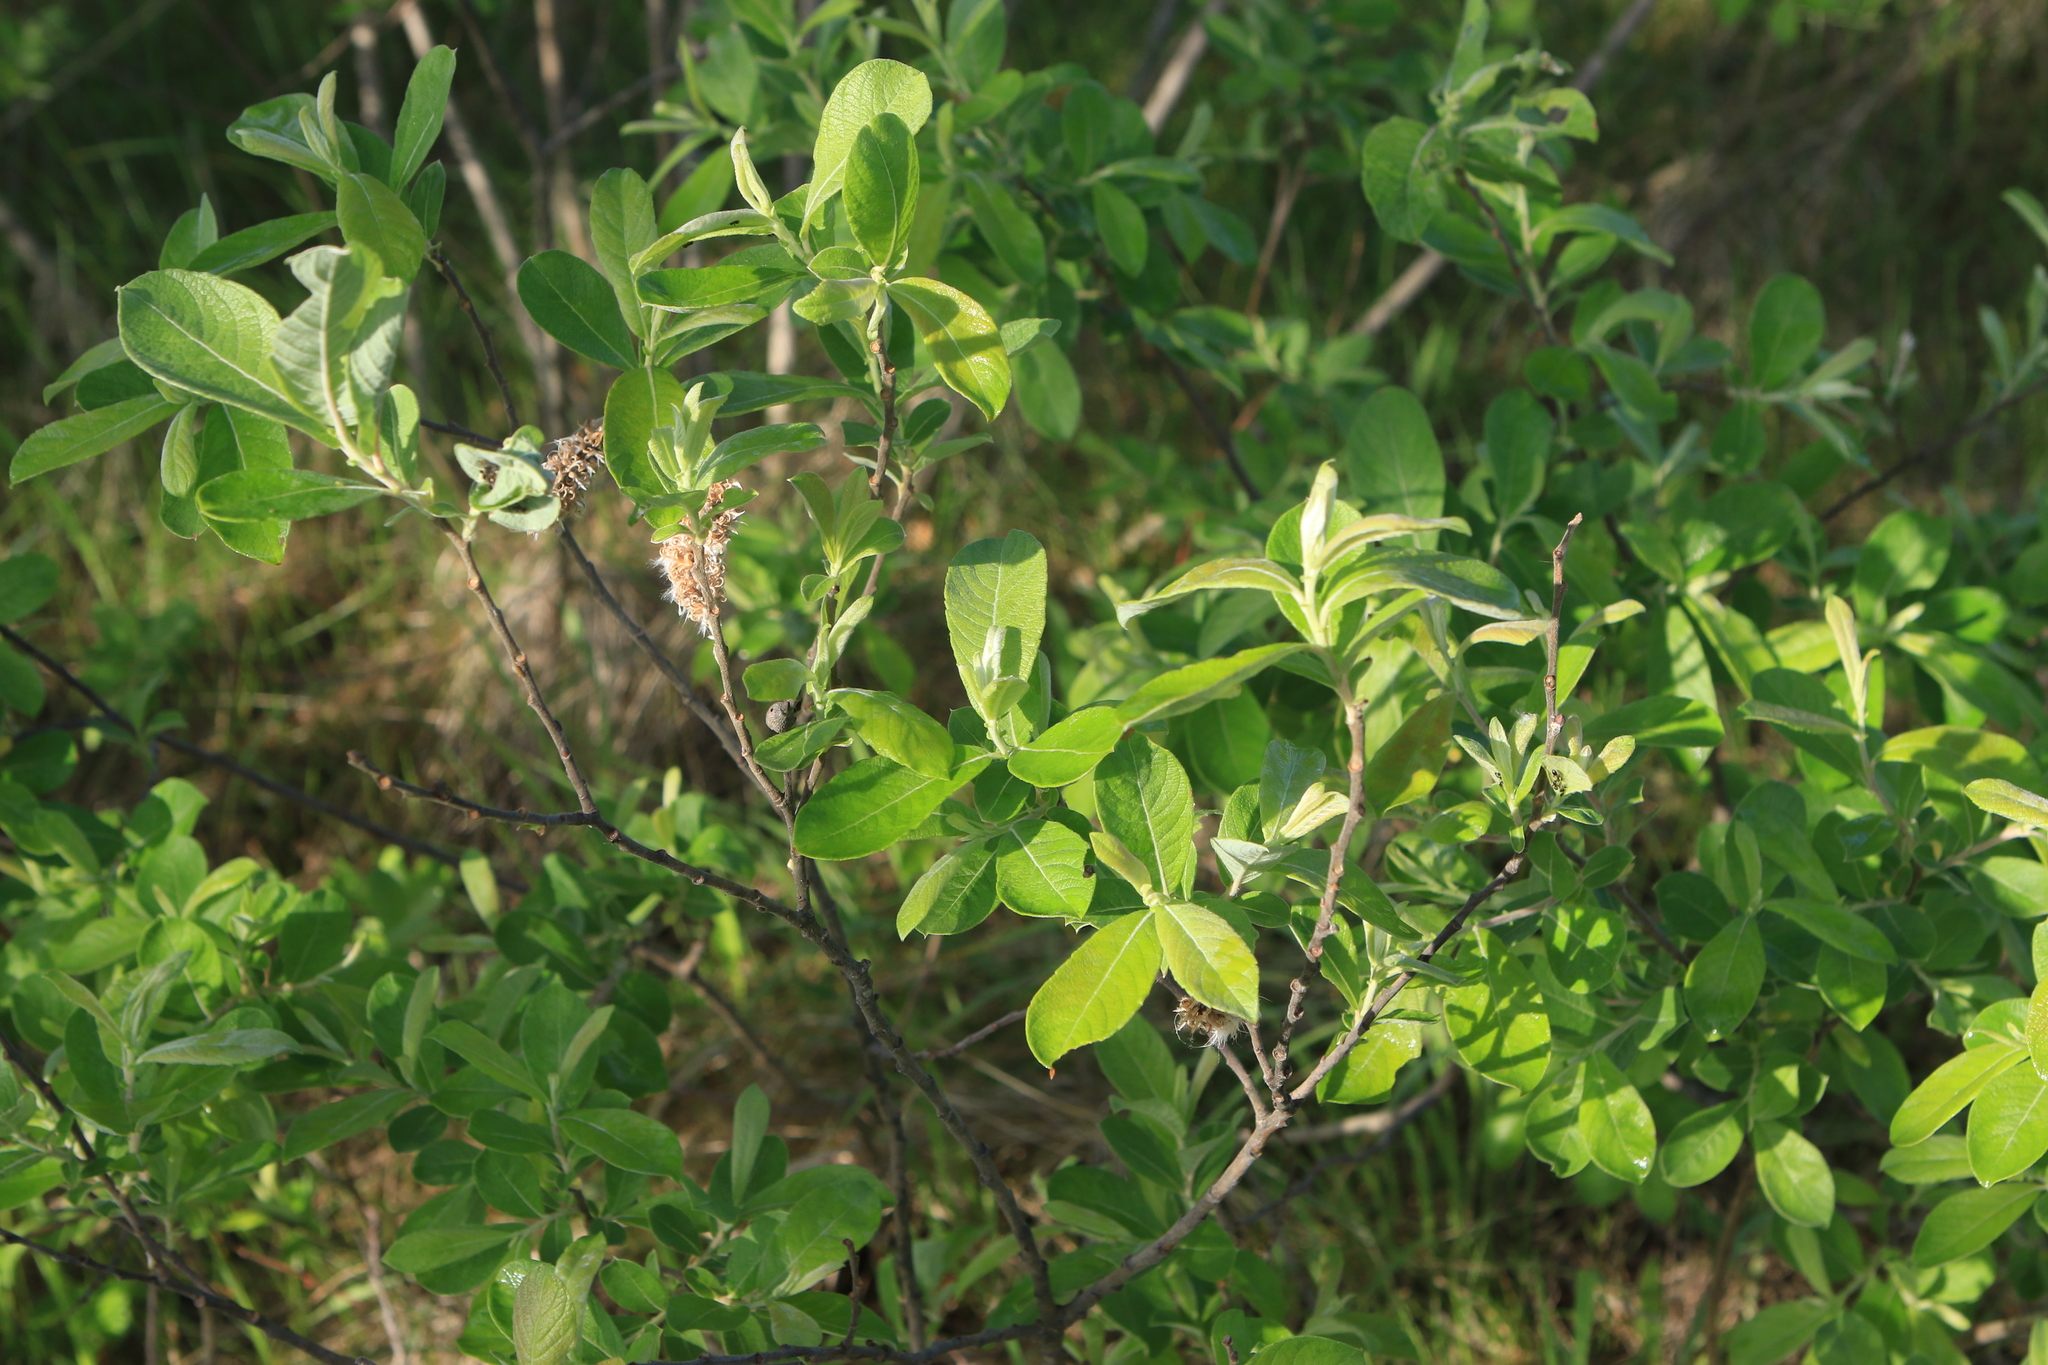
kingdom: Plantae
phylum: Tracheophyta
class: Magnoliopsida
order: Malpighiales
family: Salicaceae
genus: Salix
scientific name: Salix cinerea
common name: Common sallow
